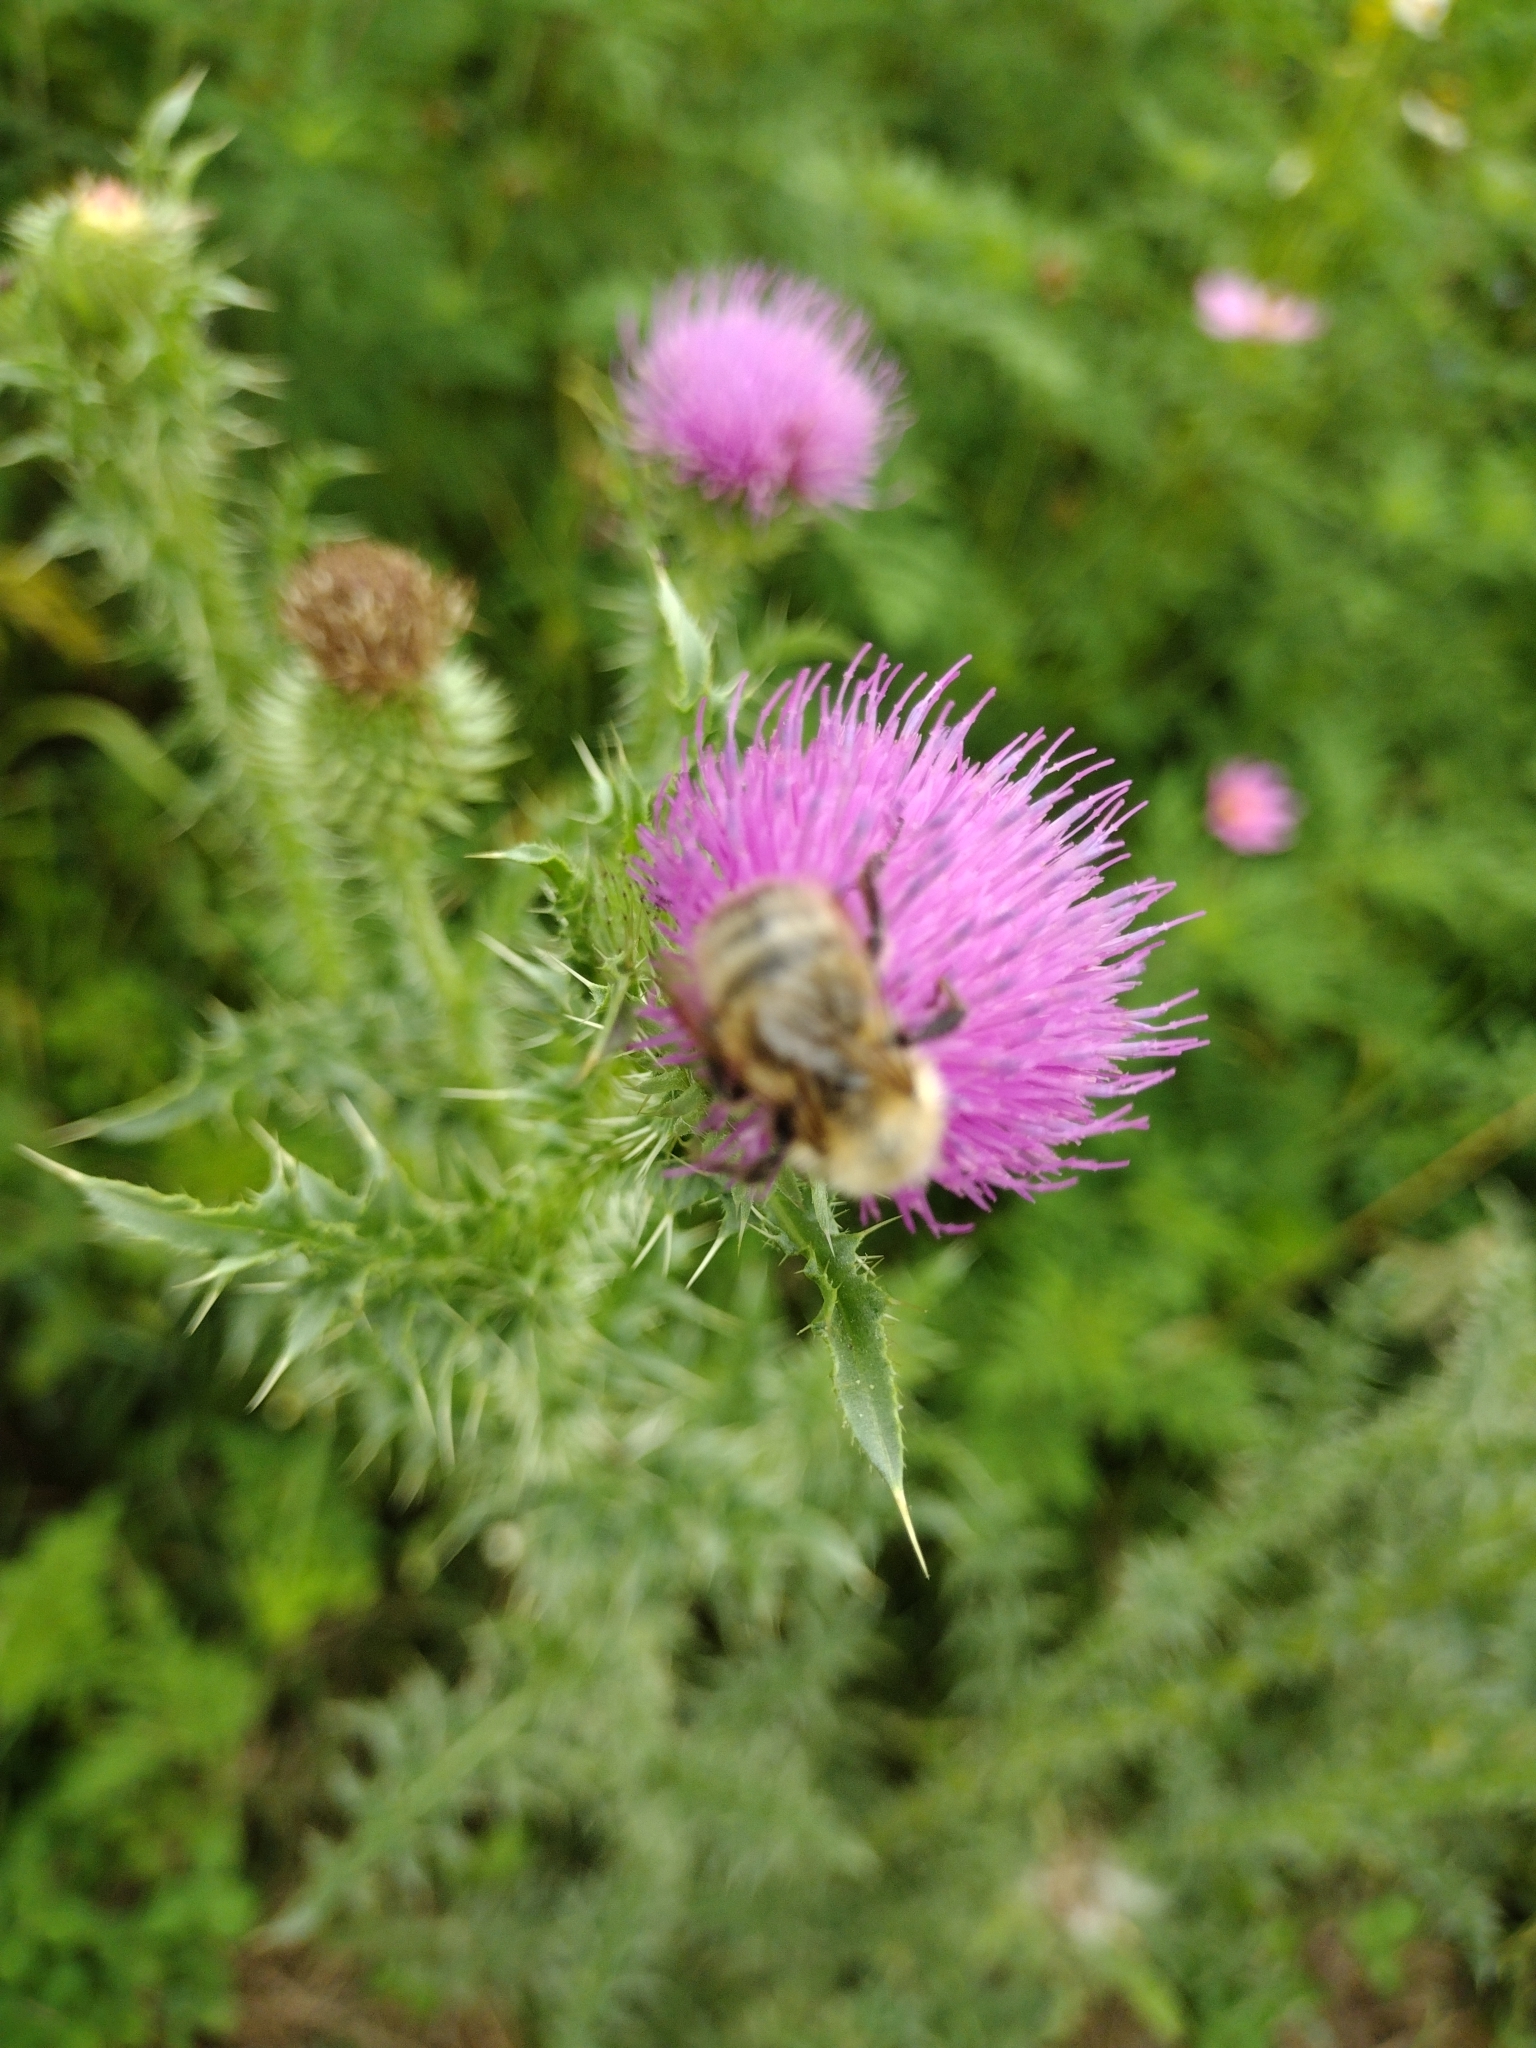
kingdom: Animalia
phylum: Arthropoda
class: Insecta
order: Hymenoptera
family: Apidae
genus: Bombus
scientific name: Bombus perplexus
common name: Confusing bumble bee
